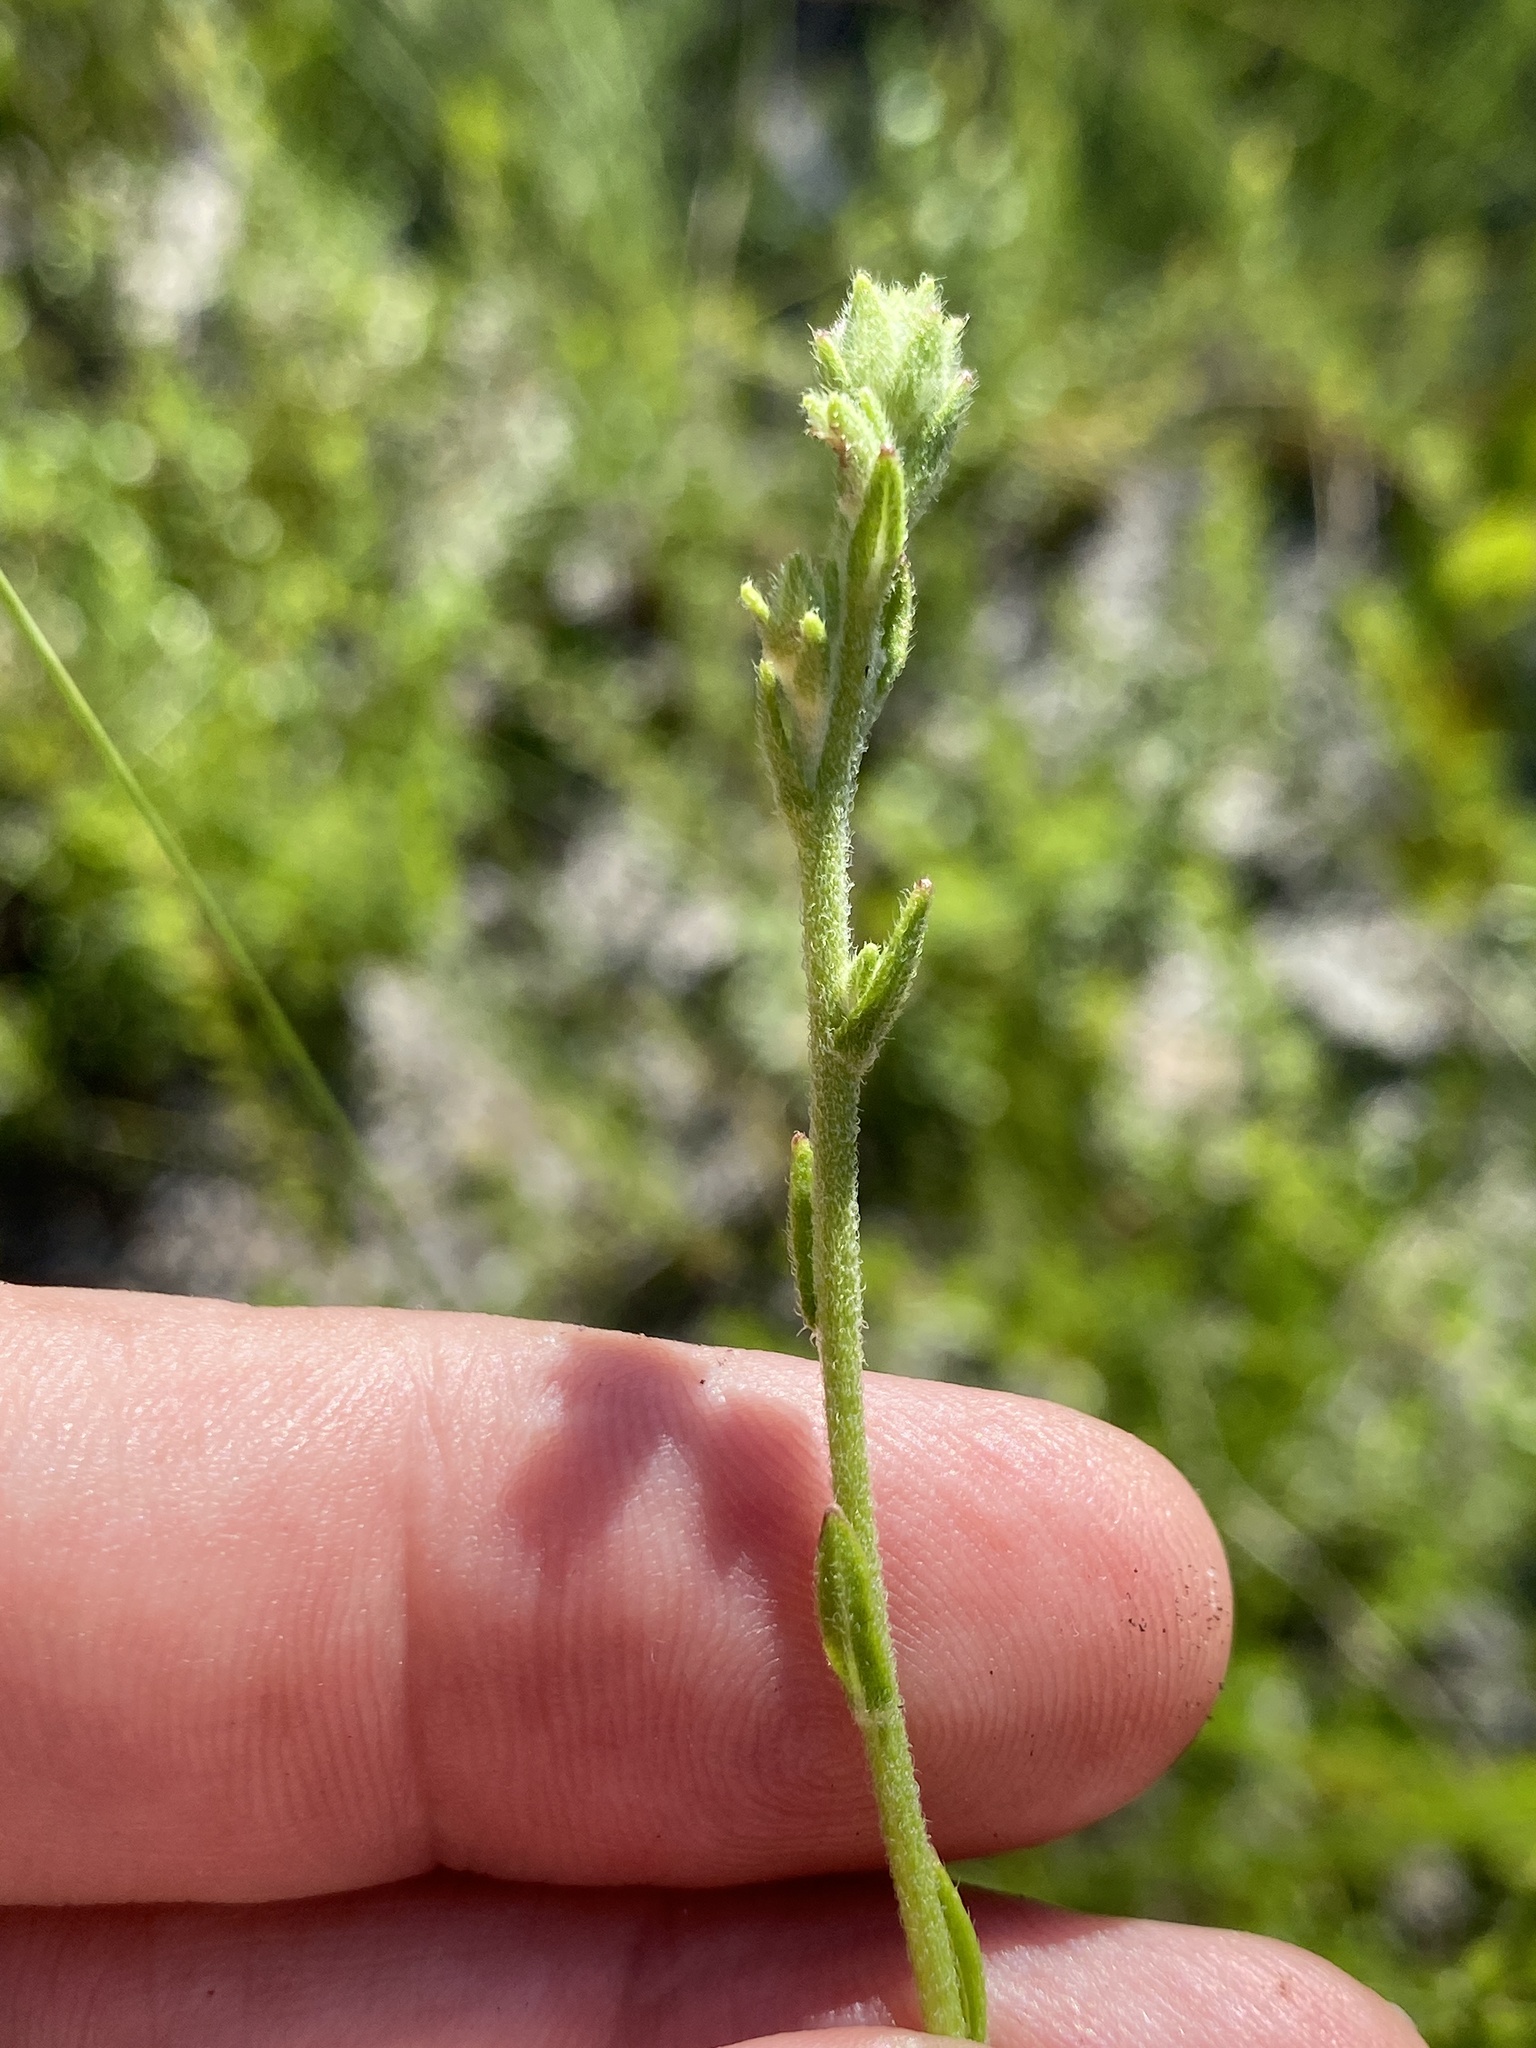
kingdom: Plantae
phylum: Tracheophyta
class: Magnoliopsida
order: Asterales
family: Asteraceae
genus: Carphephorus
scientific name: Carphephorus paniculatus
